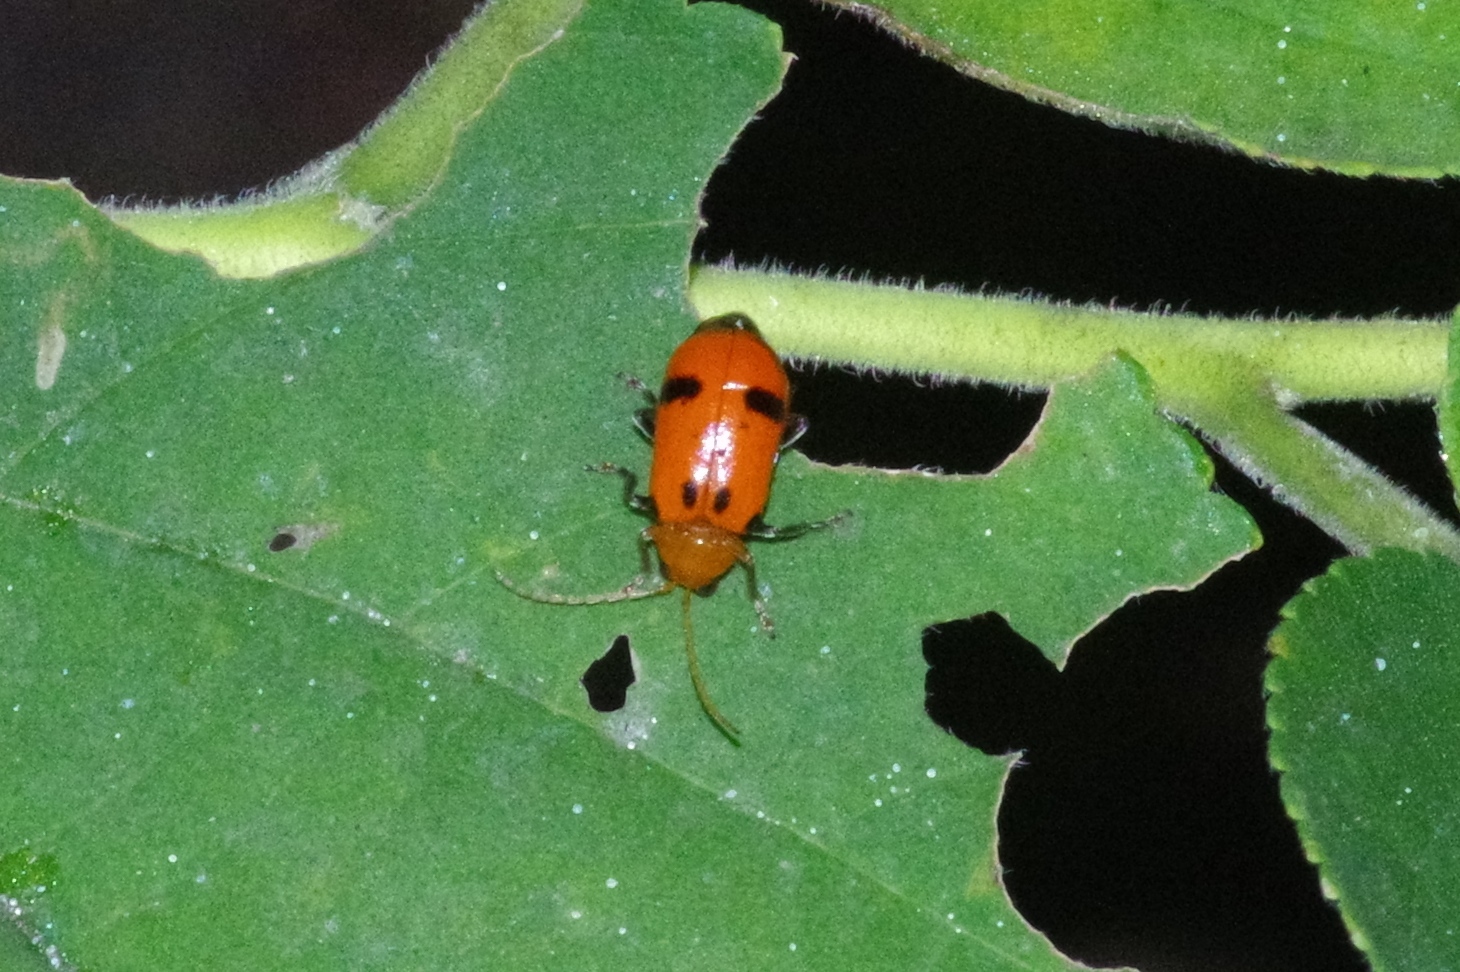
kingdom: Animalia
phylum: Arthropoda
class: Insecta
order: Coleoptera
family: Chrysomelidae
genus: Aulacophora
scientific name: Aulacophora bicolor
